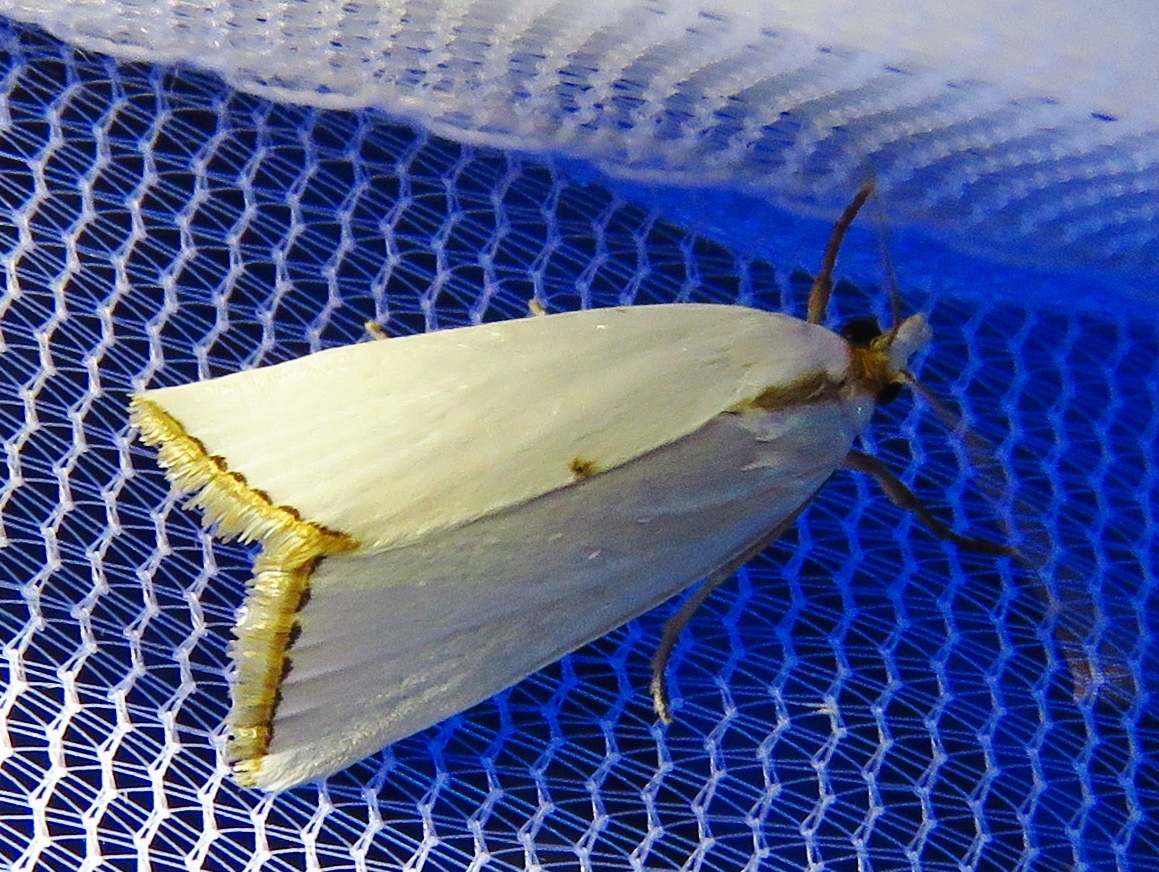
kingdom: Animalia
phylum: Arthropoda
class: Insecta
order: Lepidoptera
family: Crambidae
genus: Argyria
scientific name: Argyria nivalis
